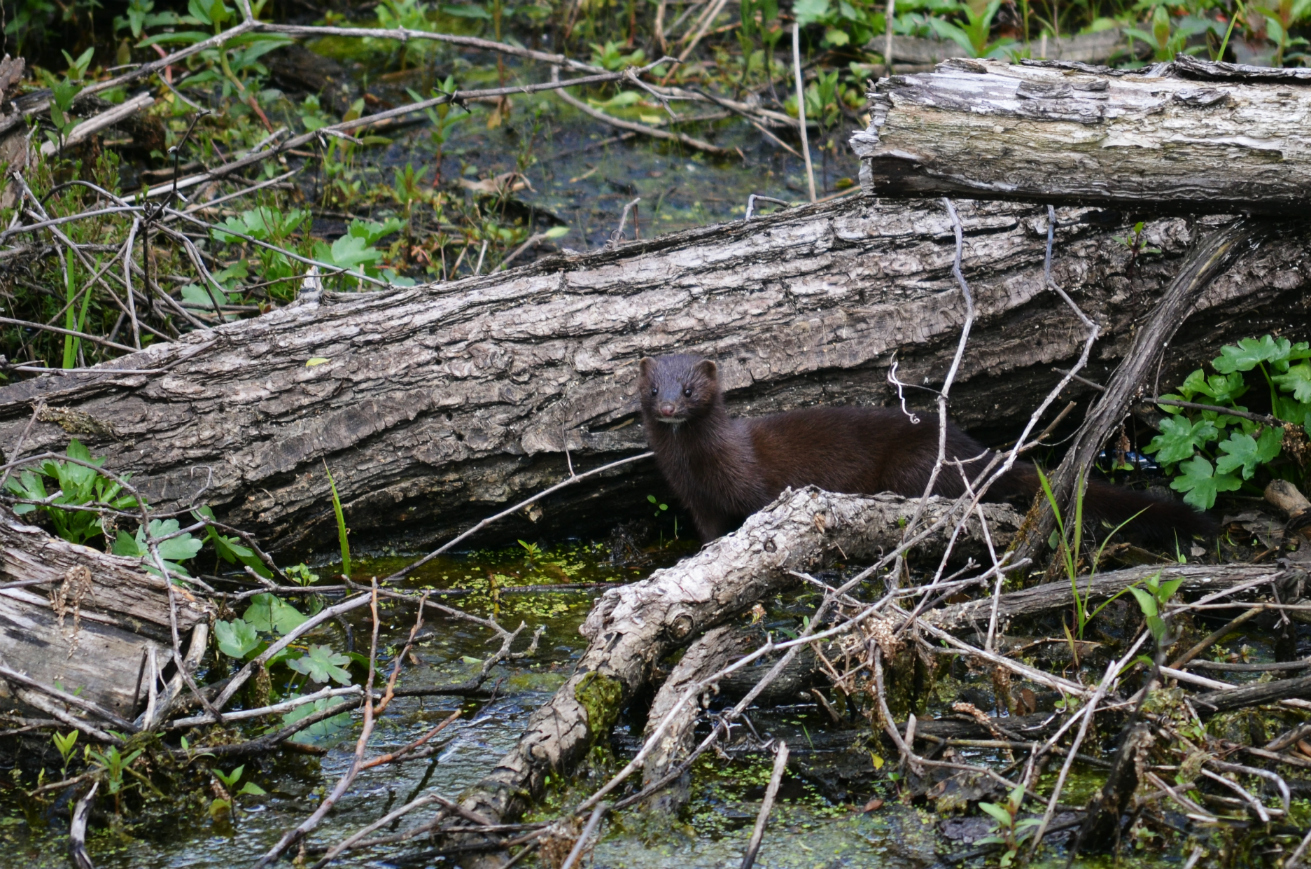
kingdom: Animalia
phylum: Chordata
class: Mammalia
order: Carnivora
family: Mustelidae
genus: Mustela
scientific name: Mustela
